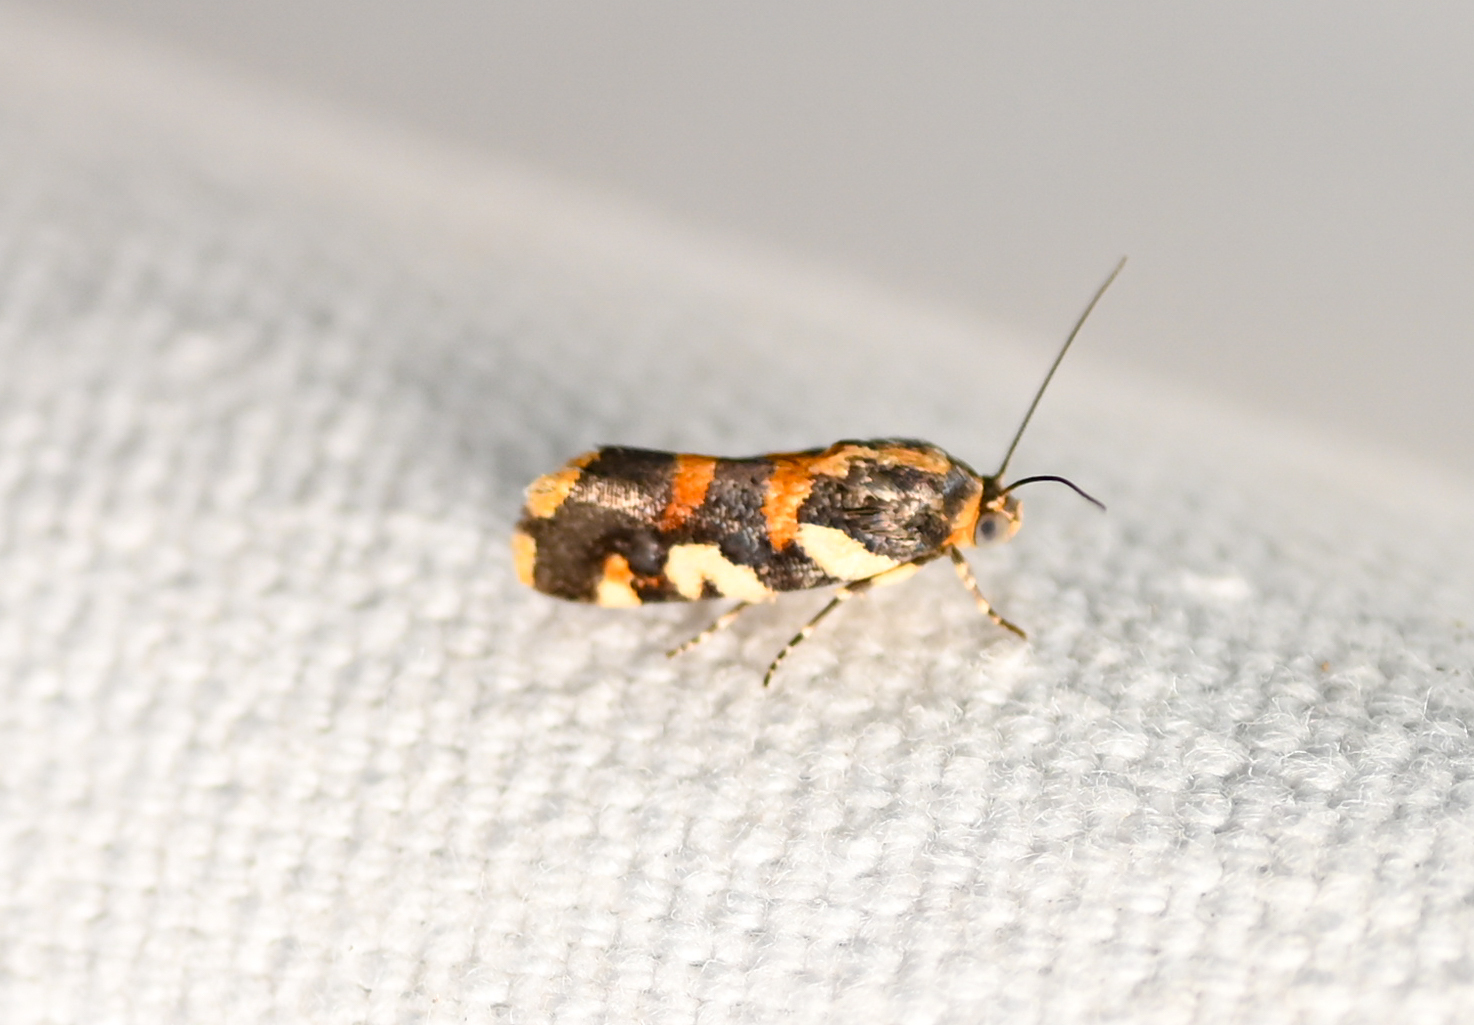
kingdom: Animalia
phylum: Arthropoda
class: Insecta
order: Lepidoptera
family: Noctuidae
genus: Acontia
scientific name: Acontia dama
